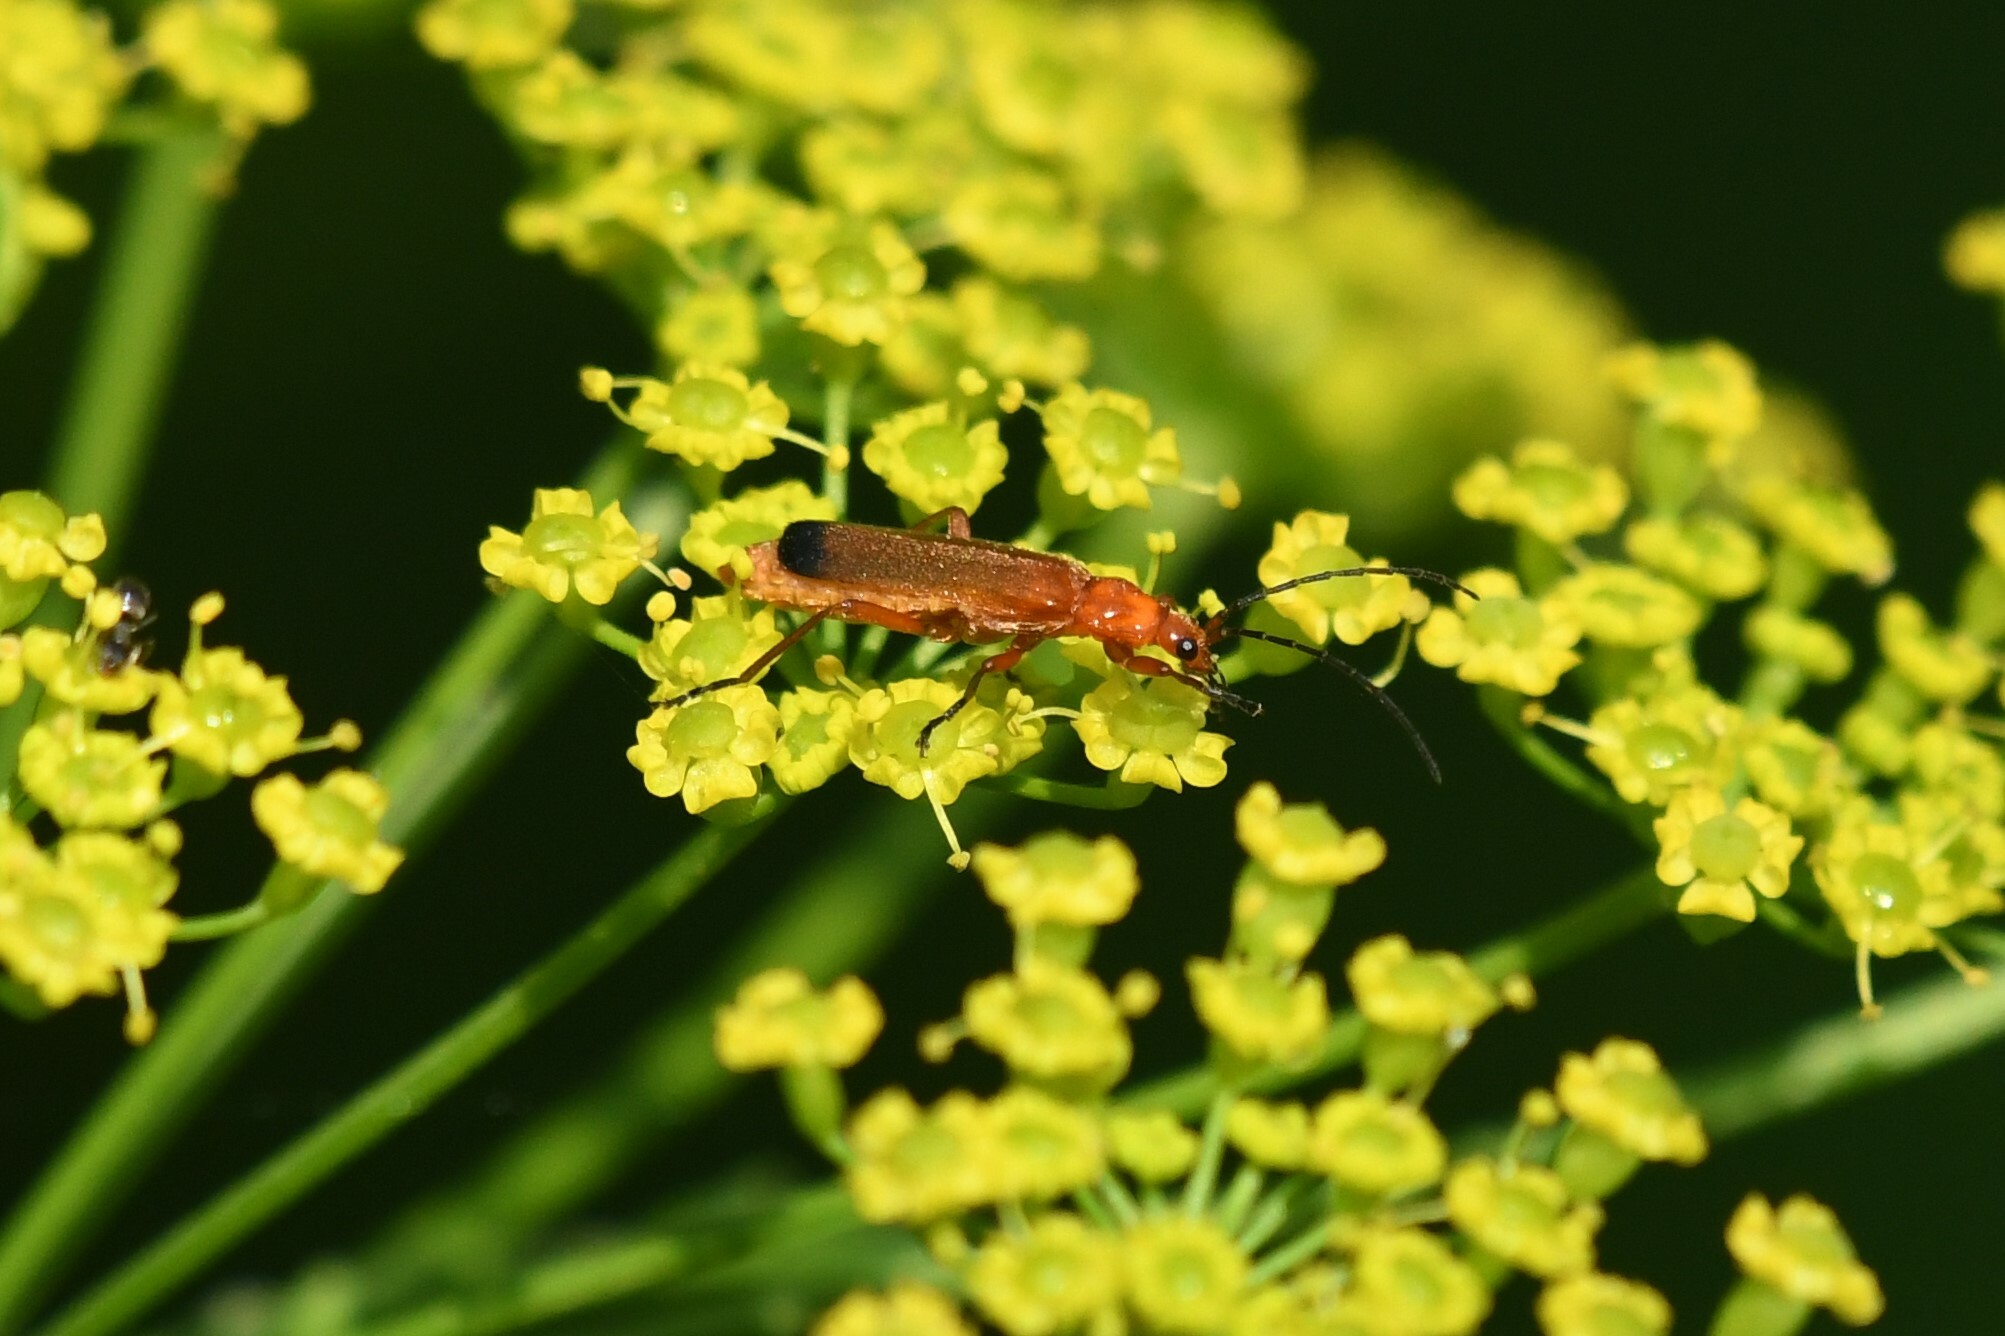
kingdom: Animalia
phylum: Arthropoda
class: Insecta
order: Coleoptera
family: Cantharidae
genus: Rhagonycha
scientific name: Rhagonycha fulva
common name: Common red soldier beetle
